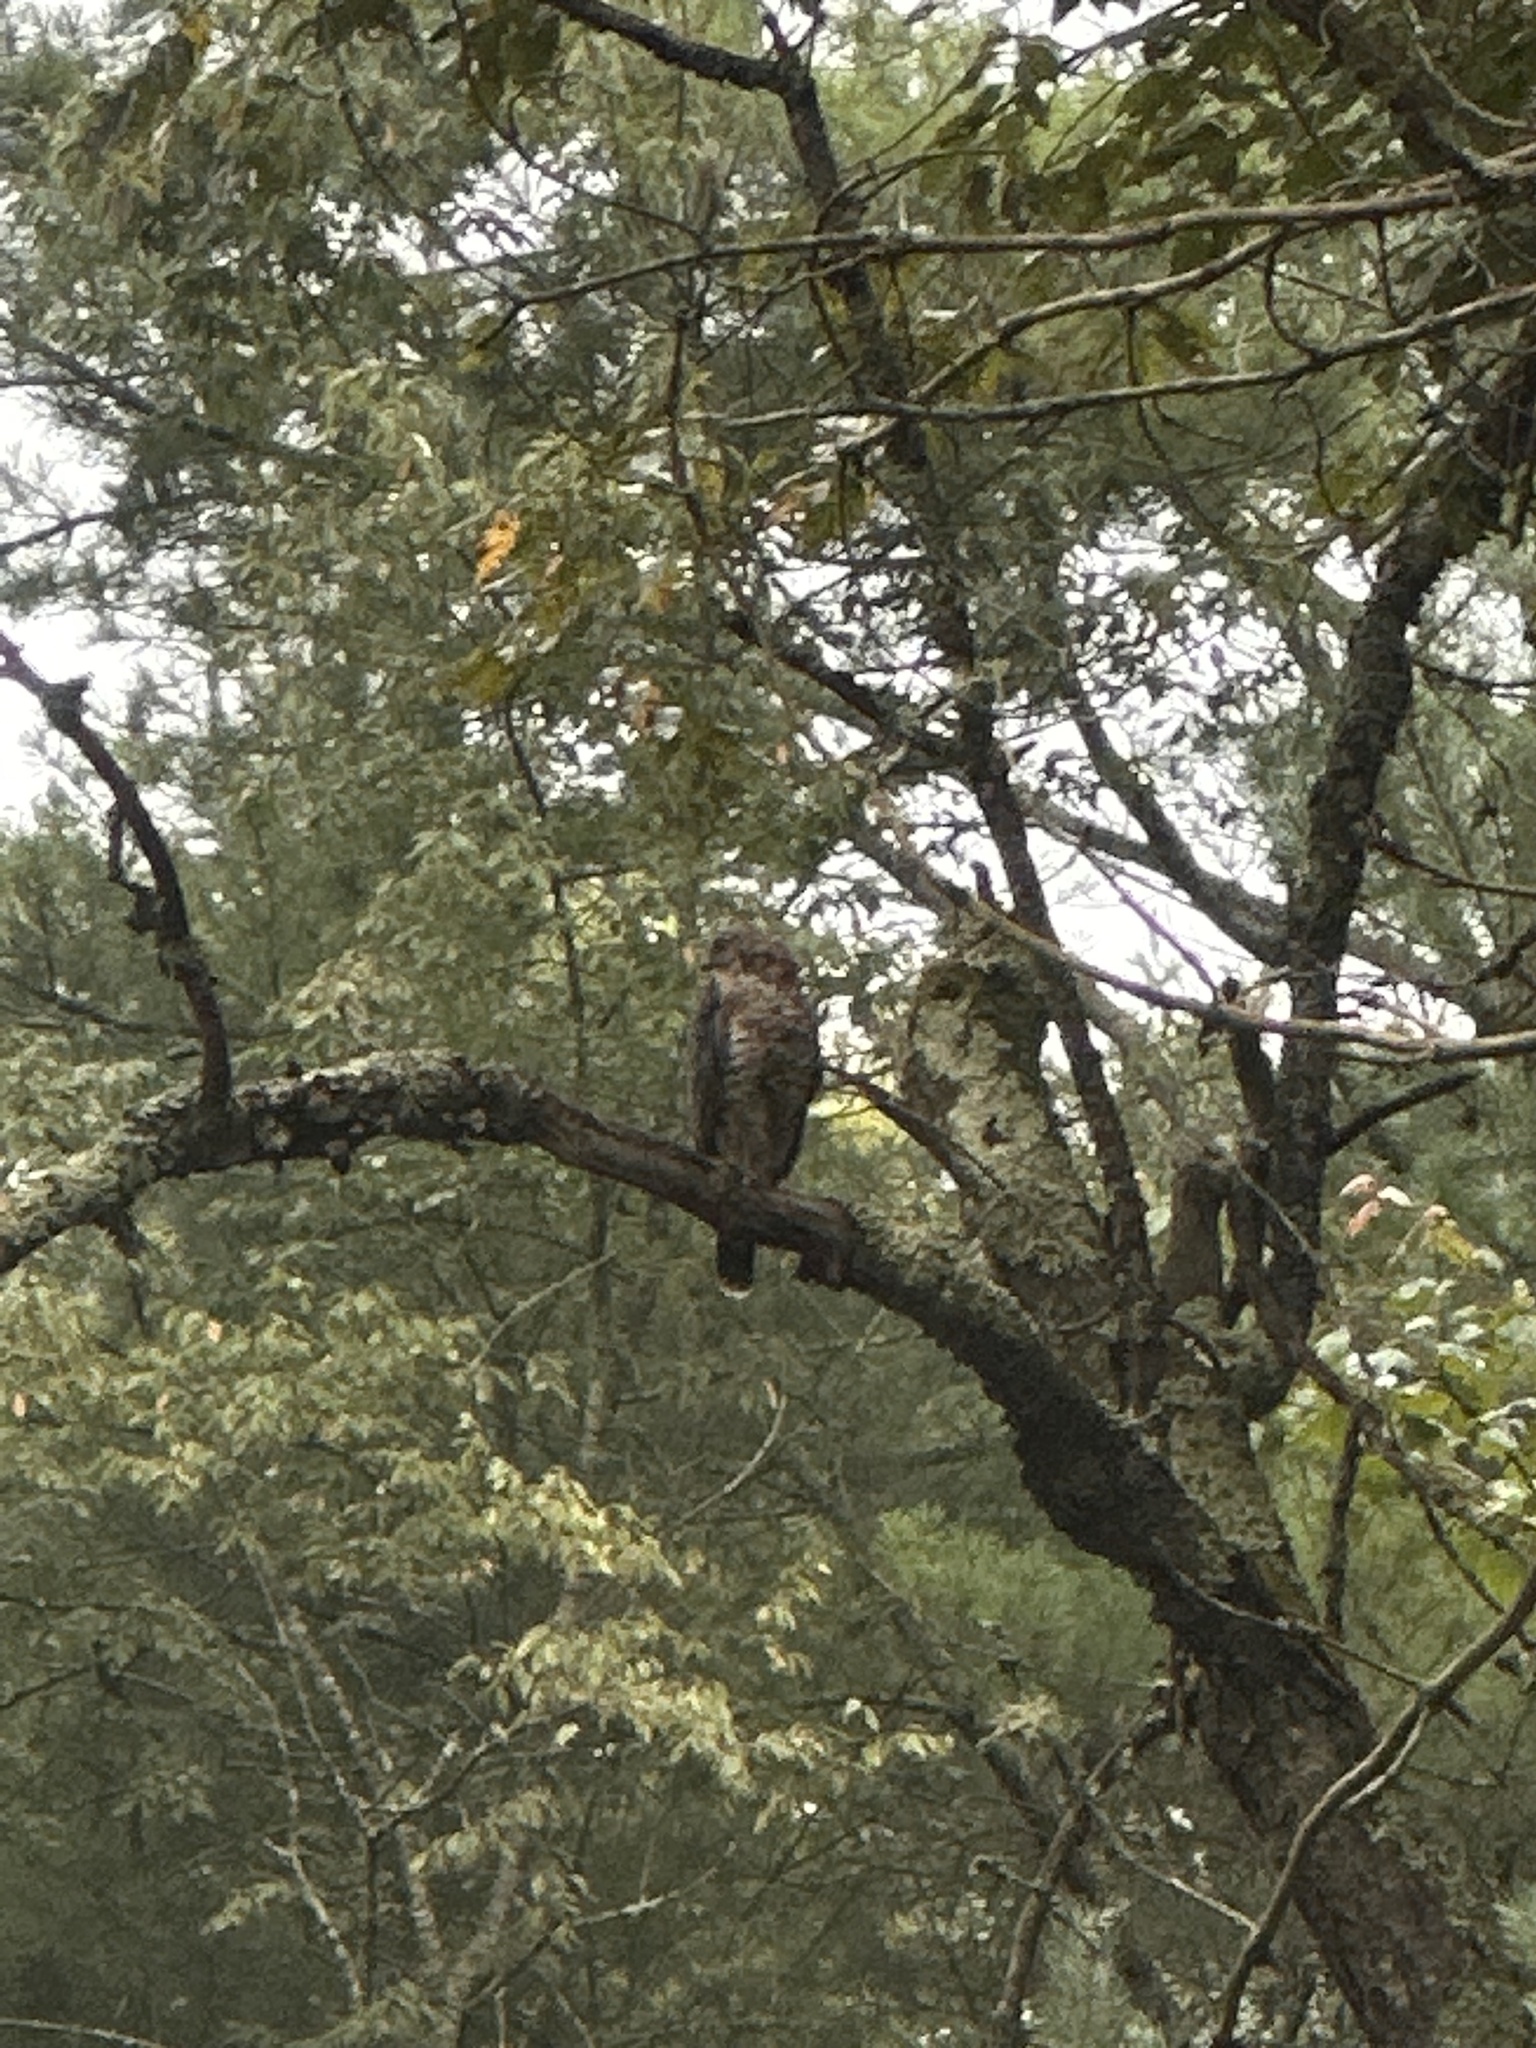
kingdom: Animalia
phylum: Chordata
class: Aves
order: Accipitriformes
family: Accipitridae
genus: Buteo
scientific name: Buteo lineatus
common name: Red-shouldered hawk
